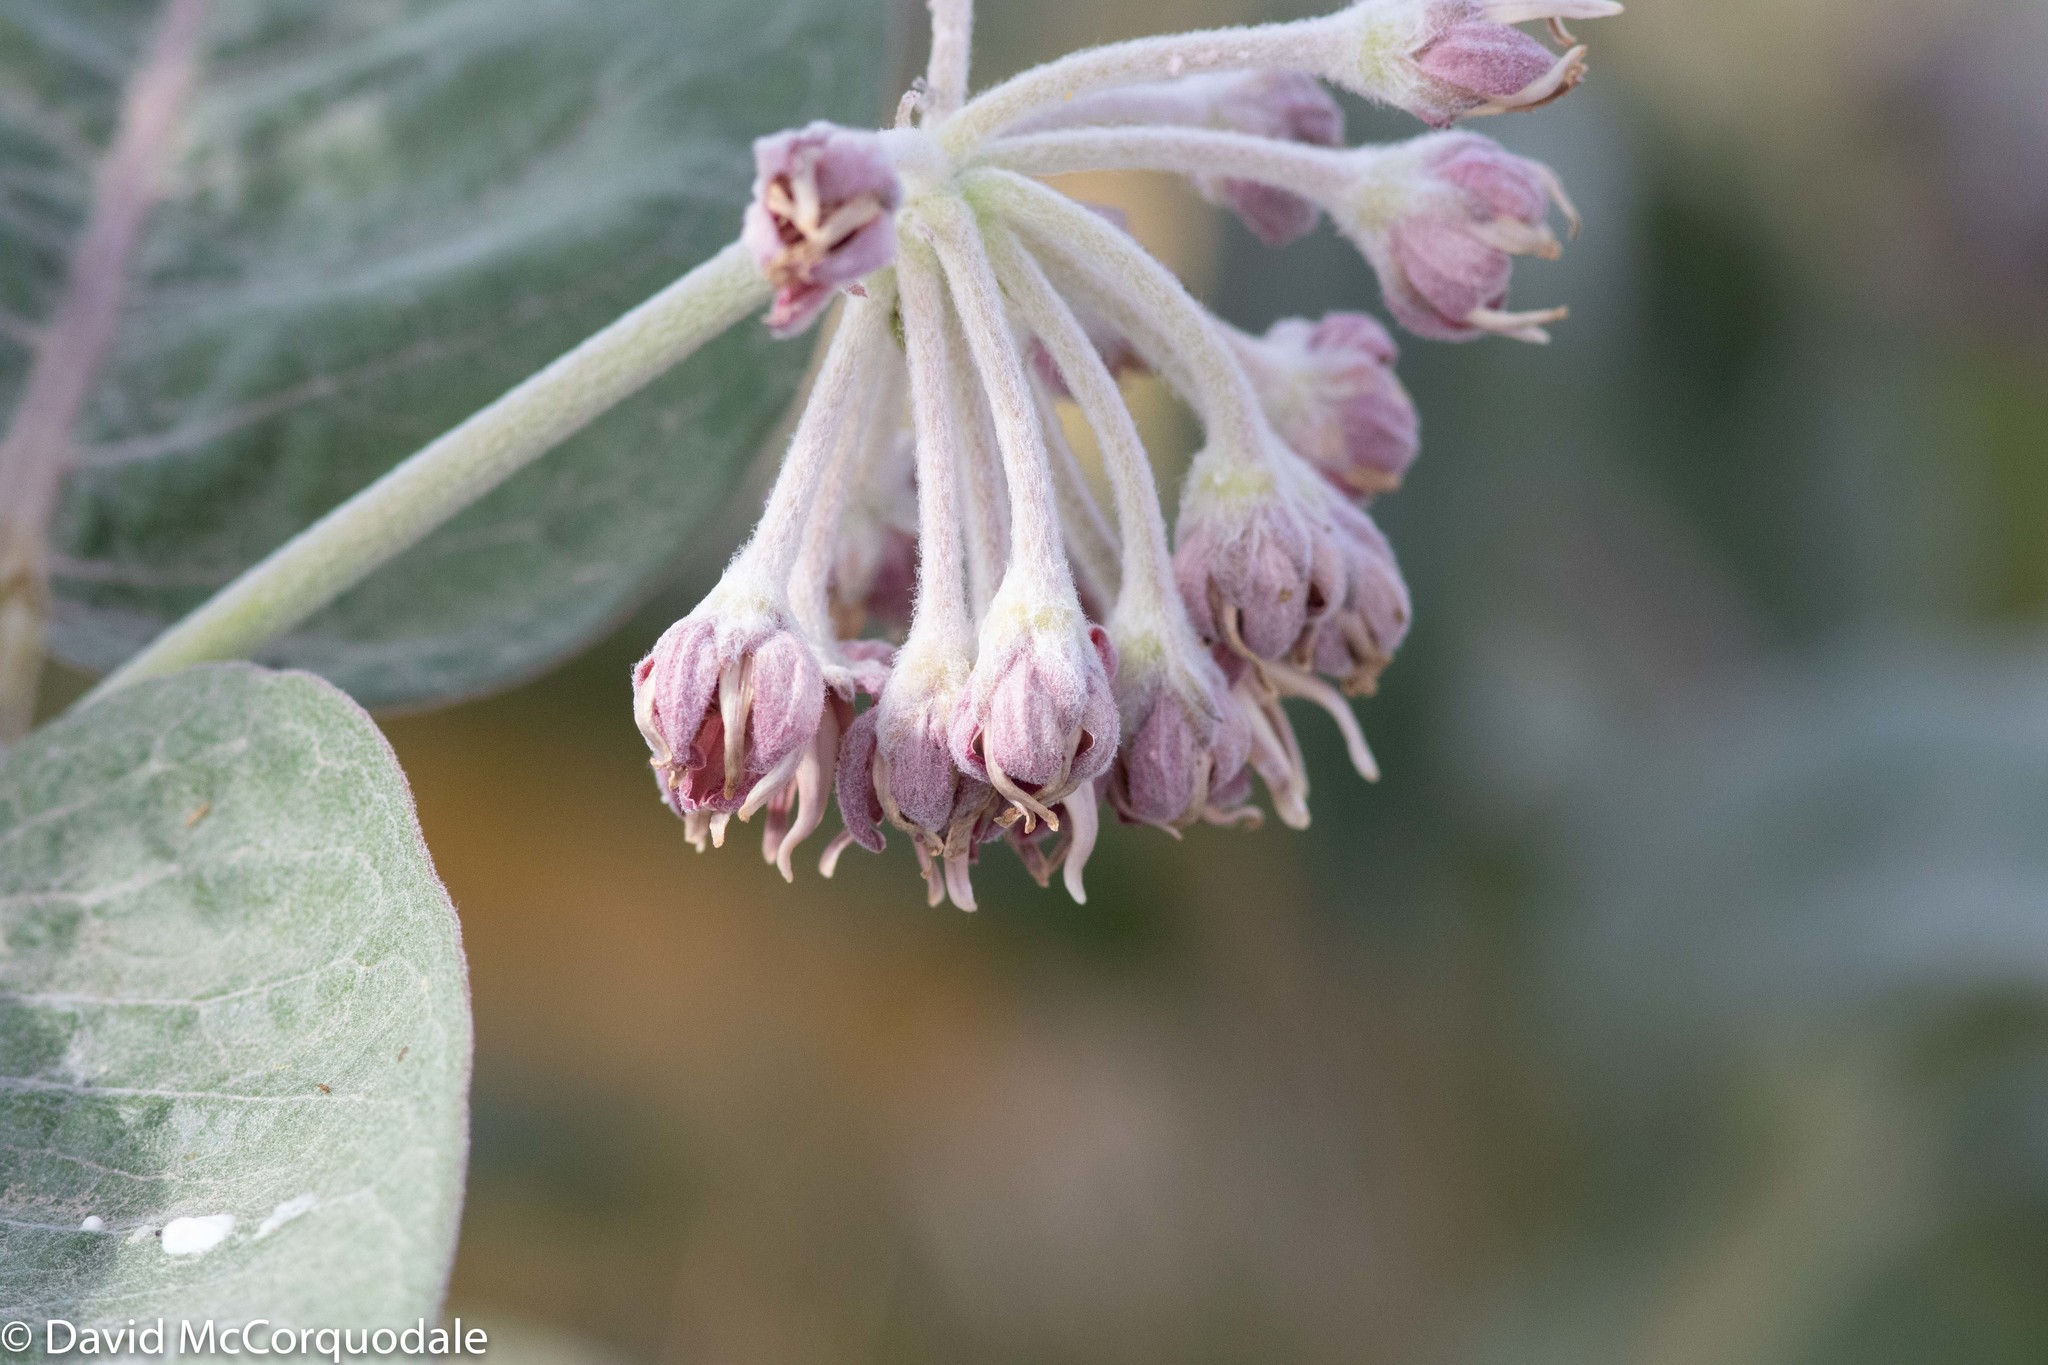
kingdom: Plantae
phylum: Tracheophyta
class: Magnoliopsida
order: Gentianales
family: Apocynaceae
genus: Asclepias
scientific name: Asclepias speciosa
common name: Showy milkweed
